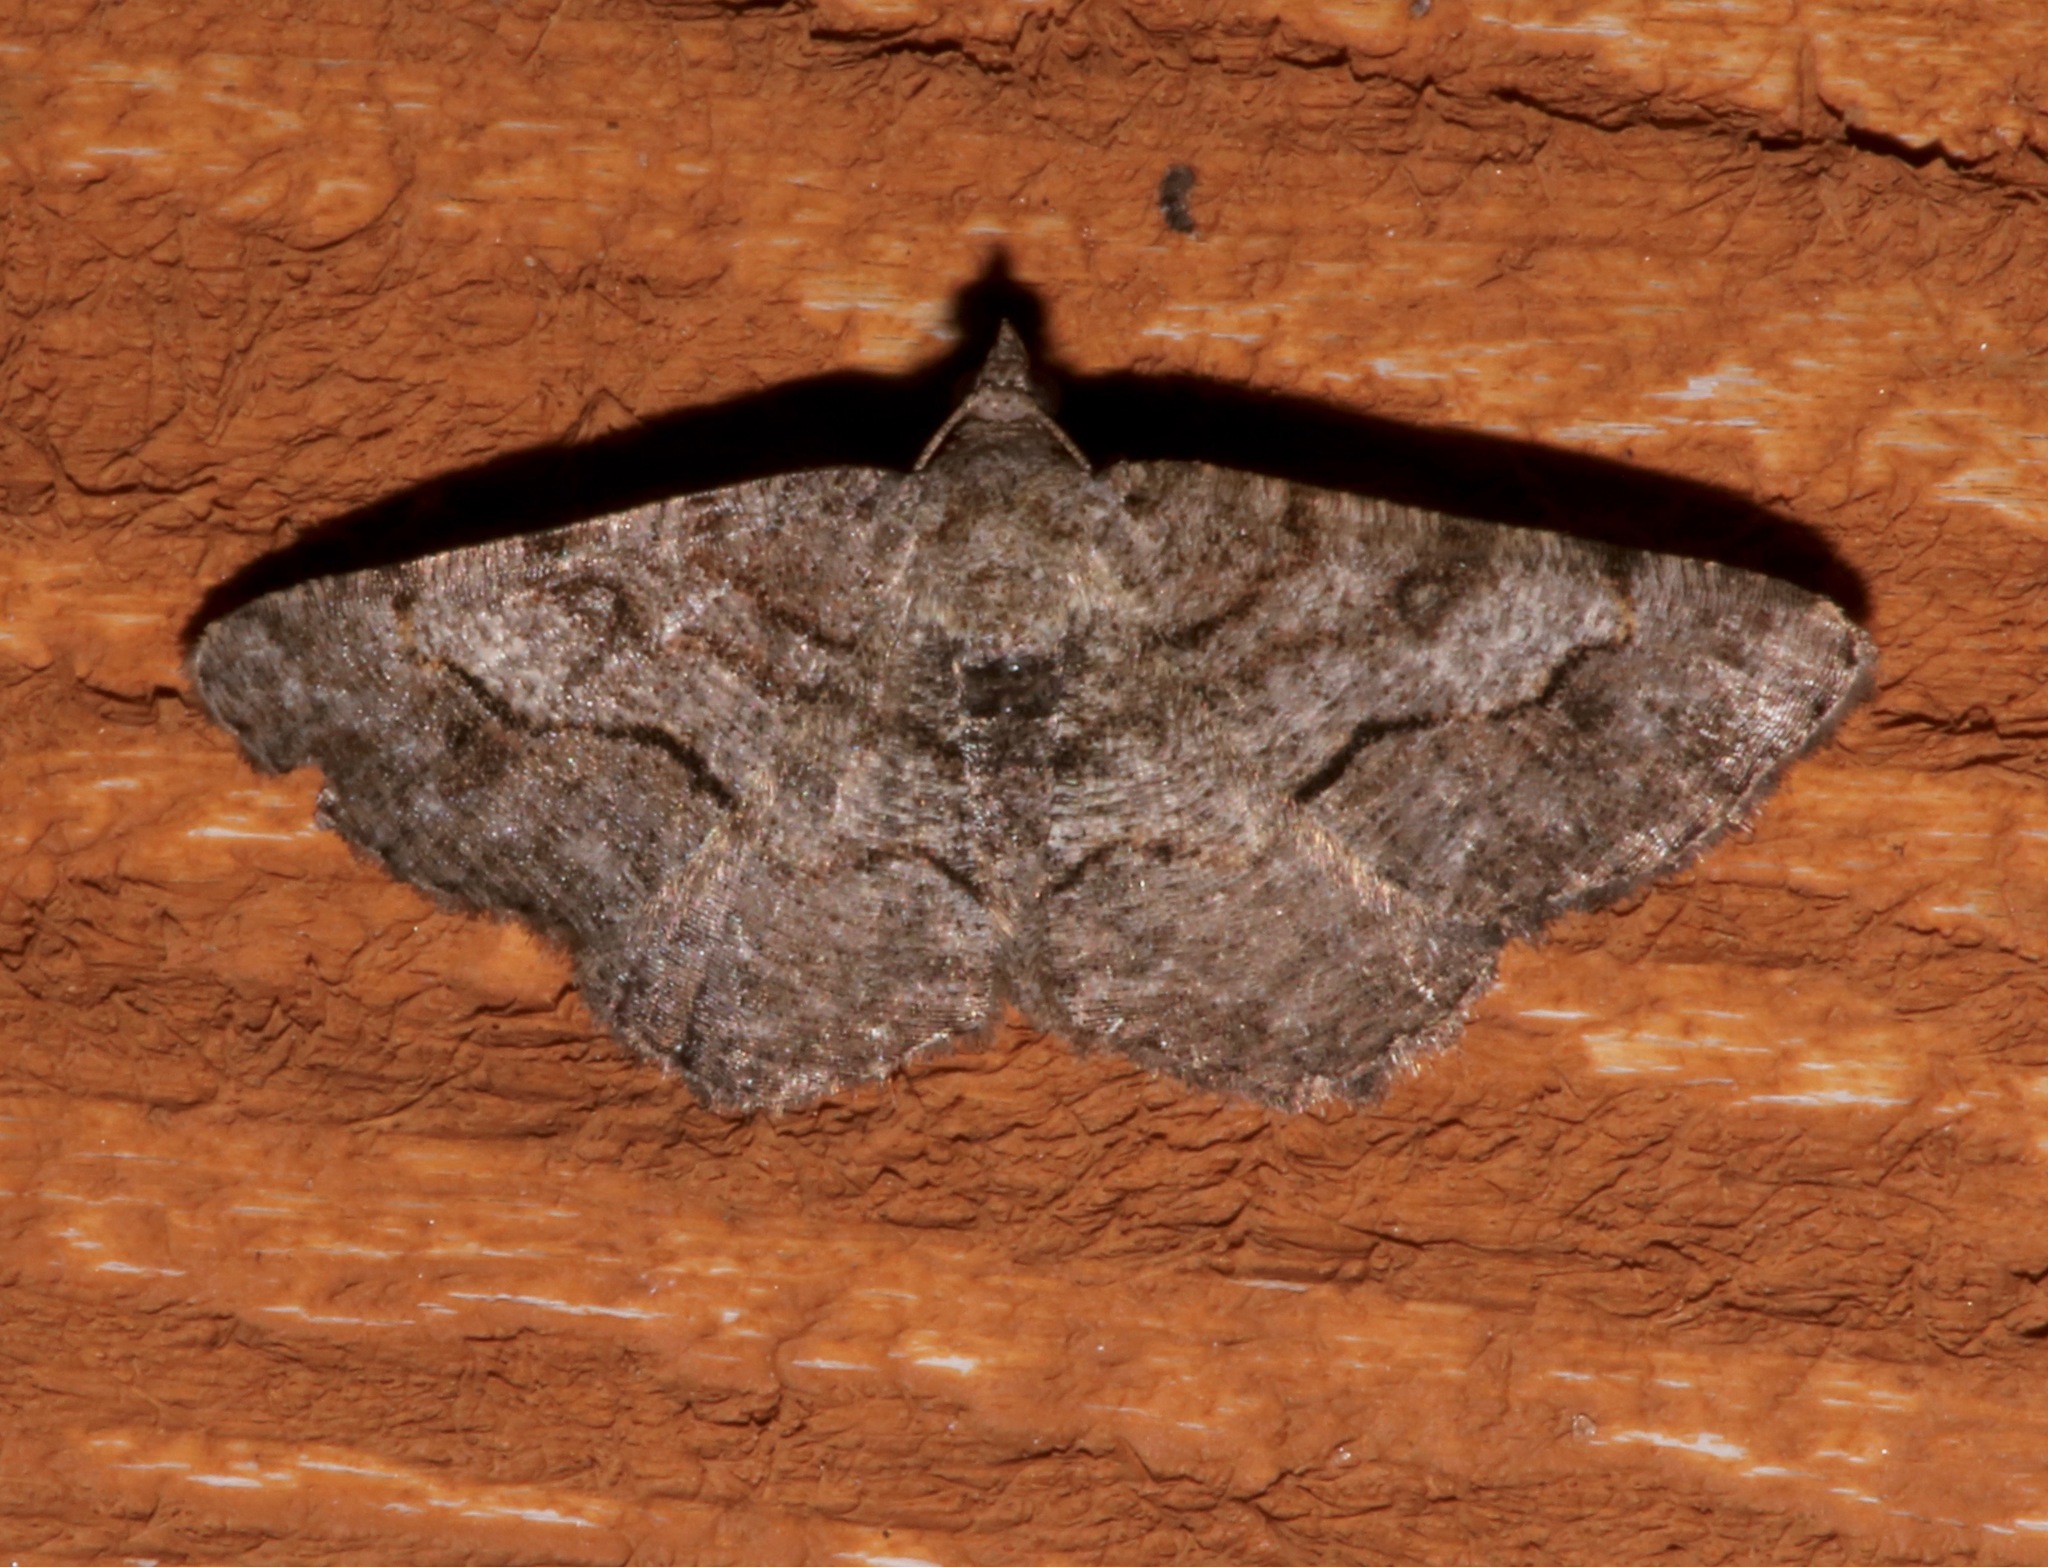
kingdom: Animalia
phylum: Arthropoda
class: Insecta
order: Lepidoptera
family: Geometridae
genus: Digrammia
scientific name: Digrammia gnophosaria
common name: Hollow-spotted angle
